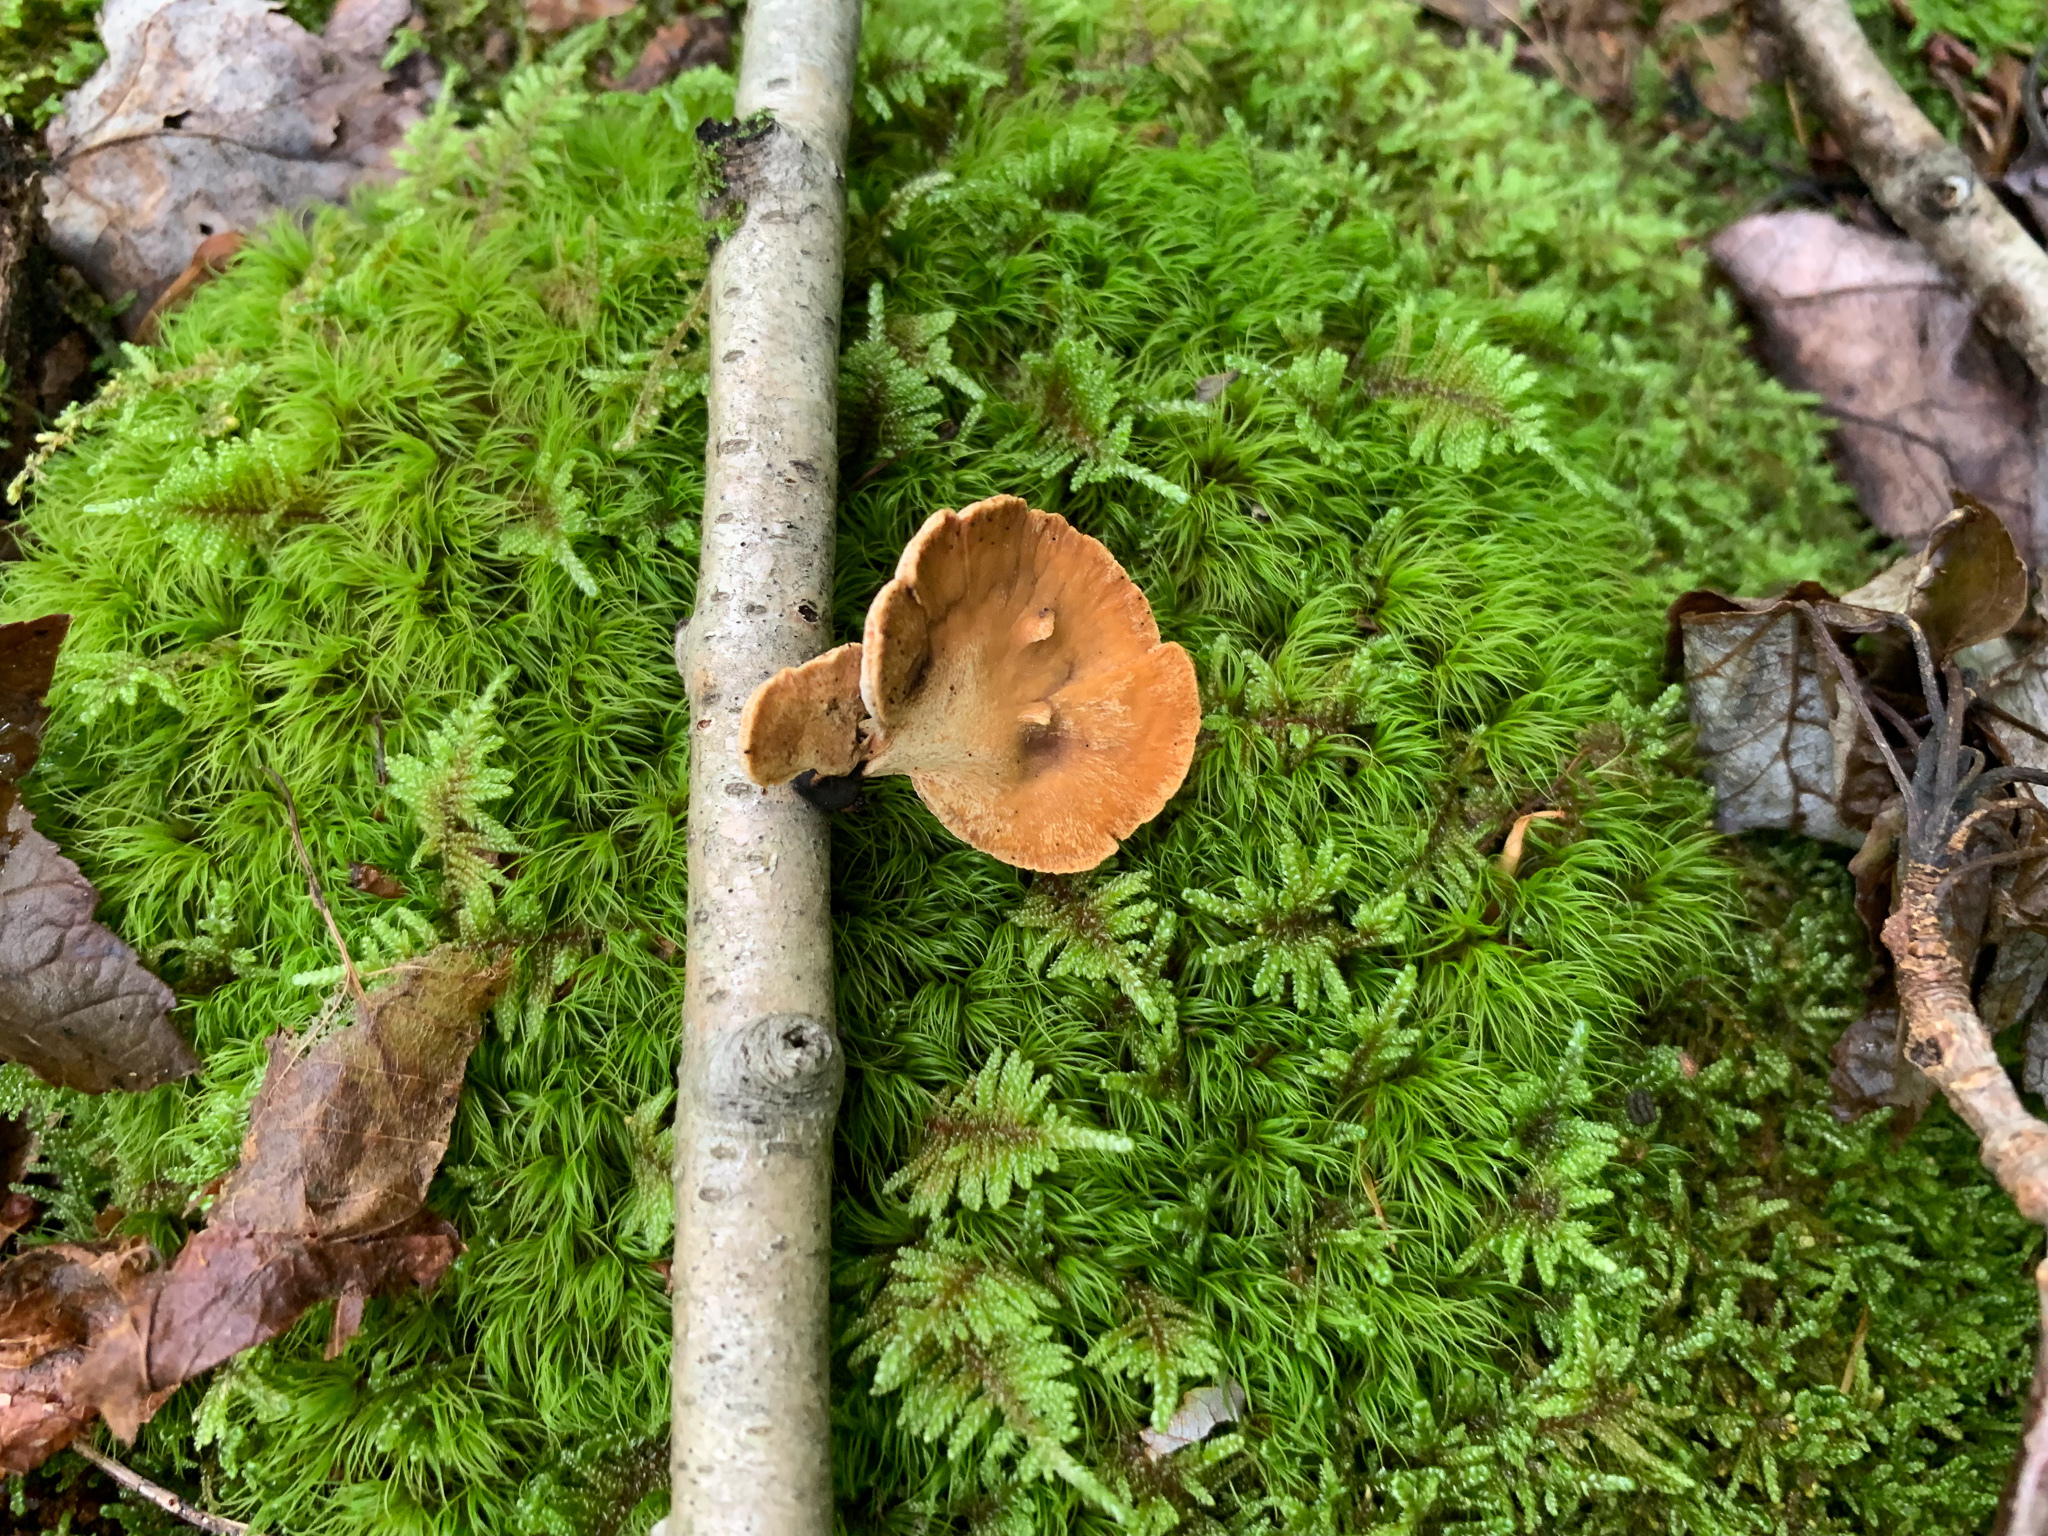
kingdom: Fungi
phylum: Basidiomycota
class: Agaricomycetes
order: Polyporales
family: Polyporaceae
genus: Cerioporus
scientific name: Cerioporus leptocephalus
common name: Blackfoot polypore
